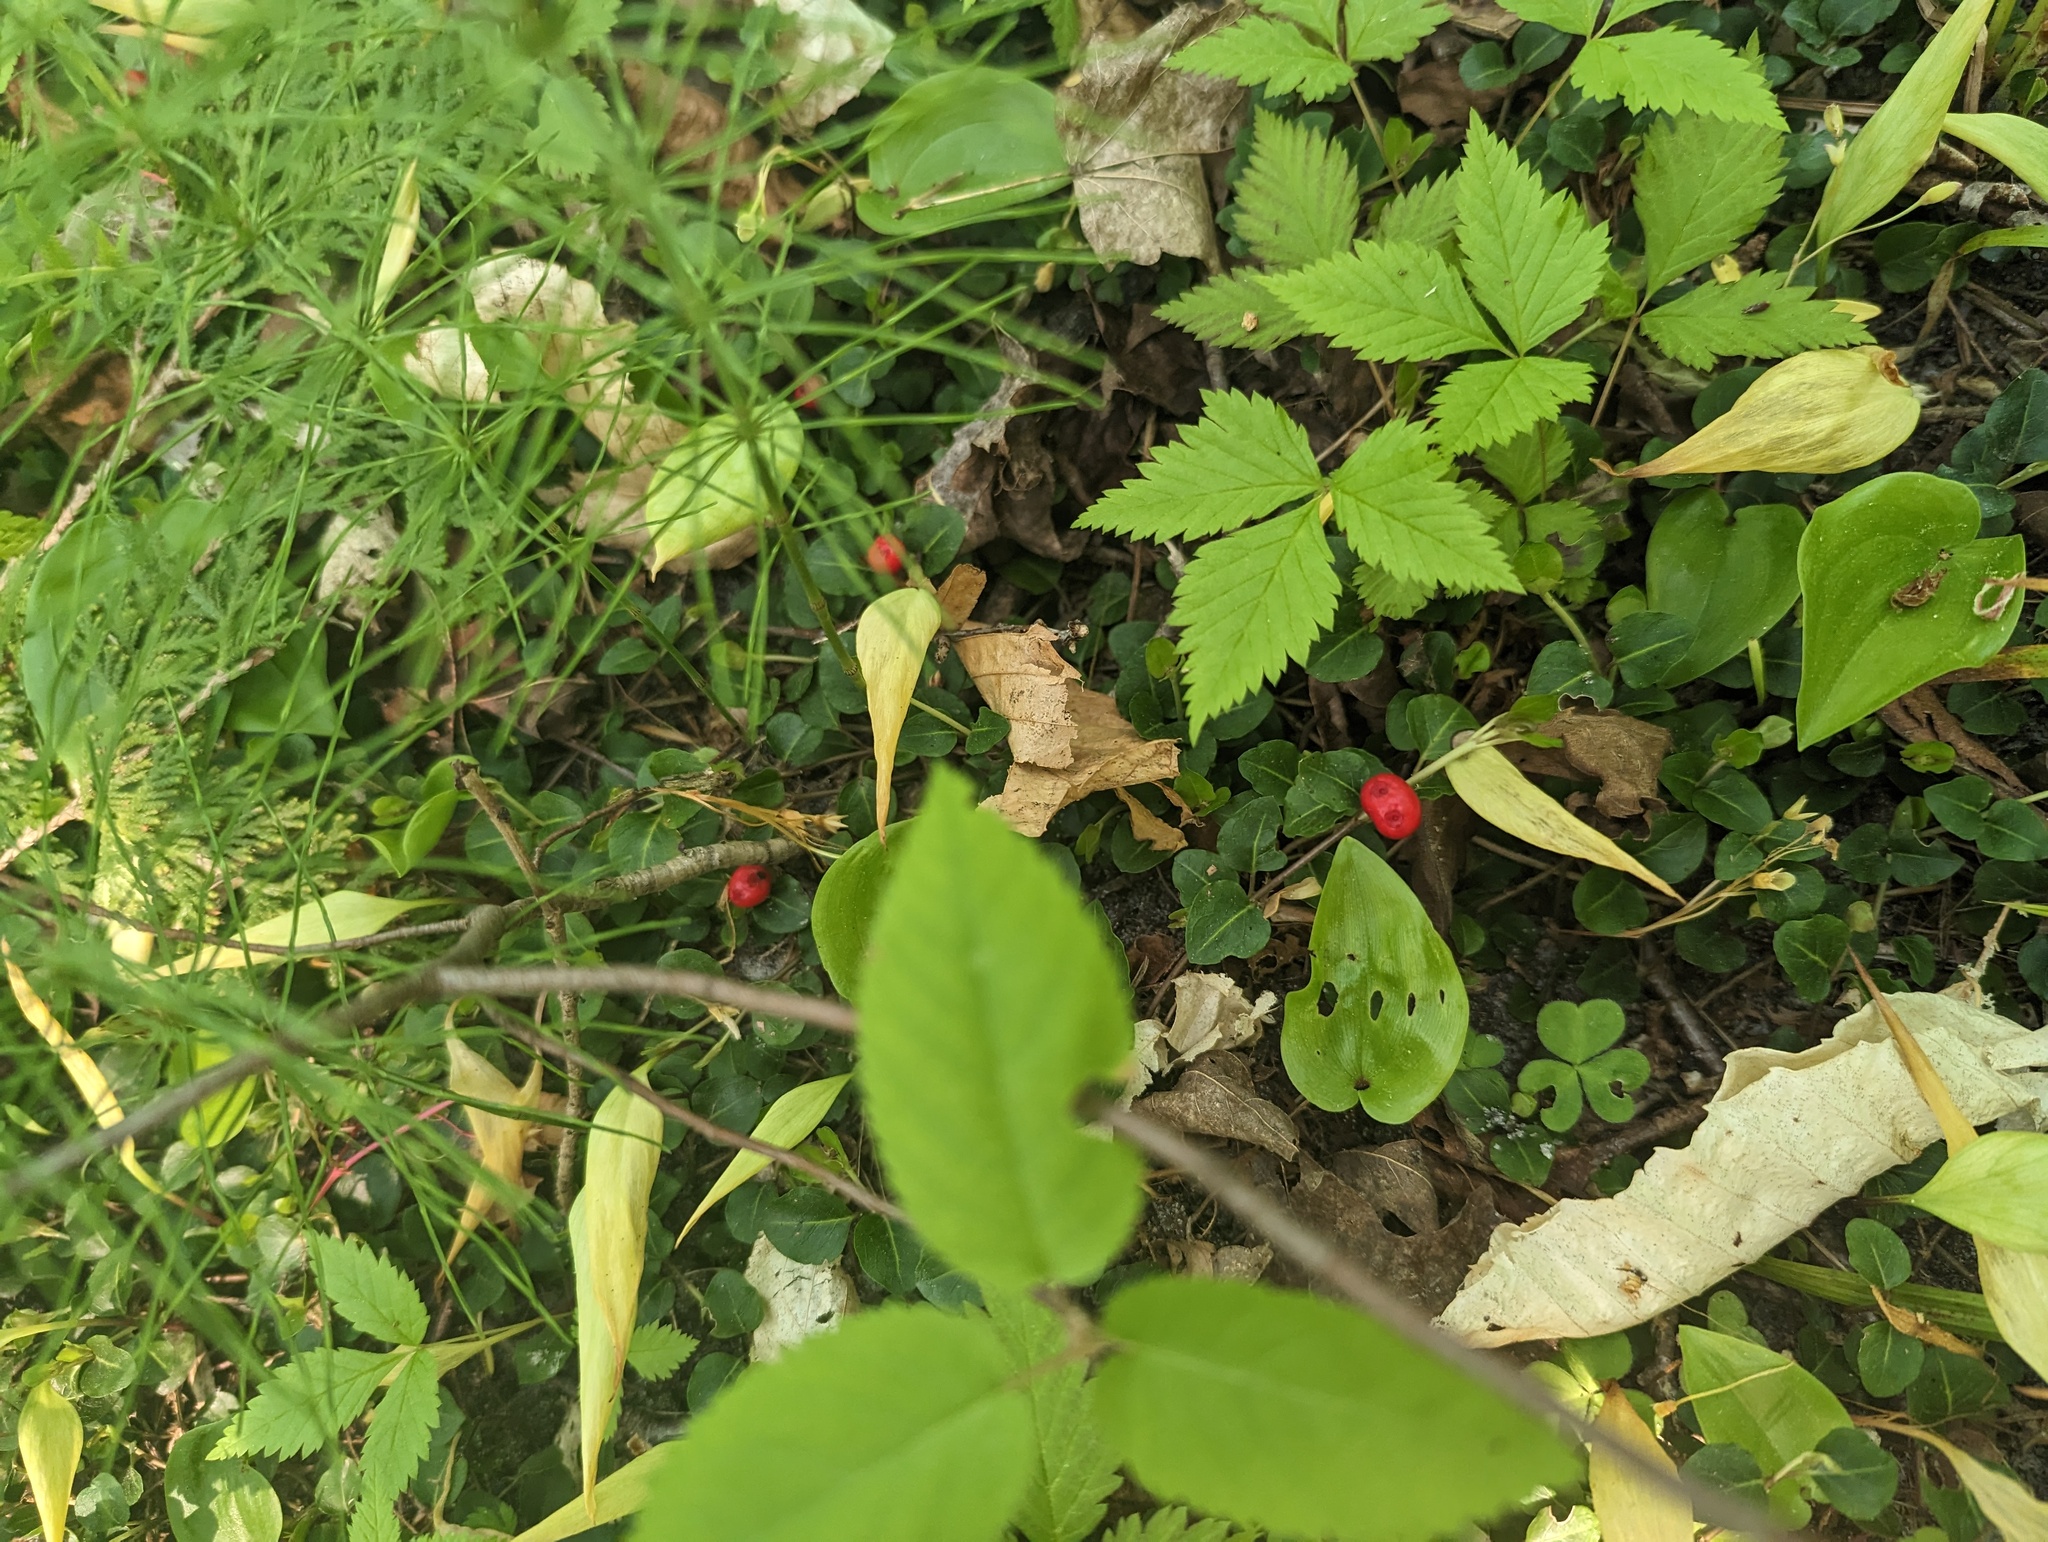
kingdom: Plantae
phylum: Tracheophyta
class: Magnoliopsida
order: Gentianales
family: Rubiaceae
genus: Mitchella
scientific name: Mitchella repens
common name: Partridge-berry
